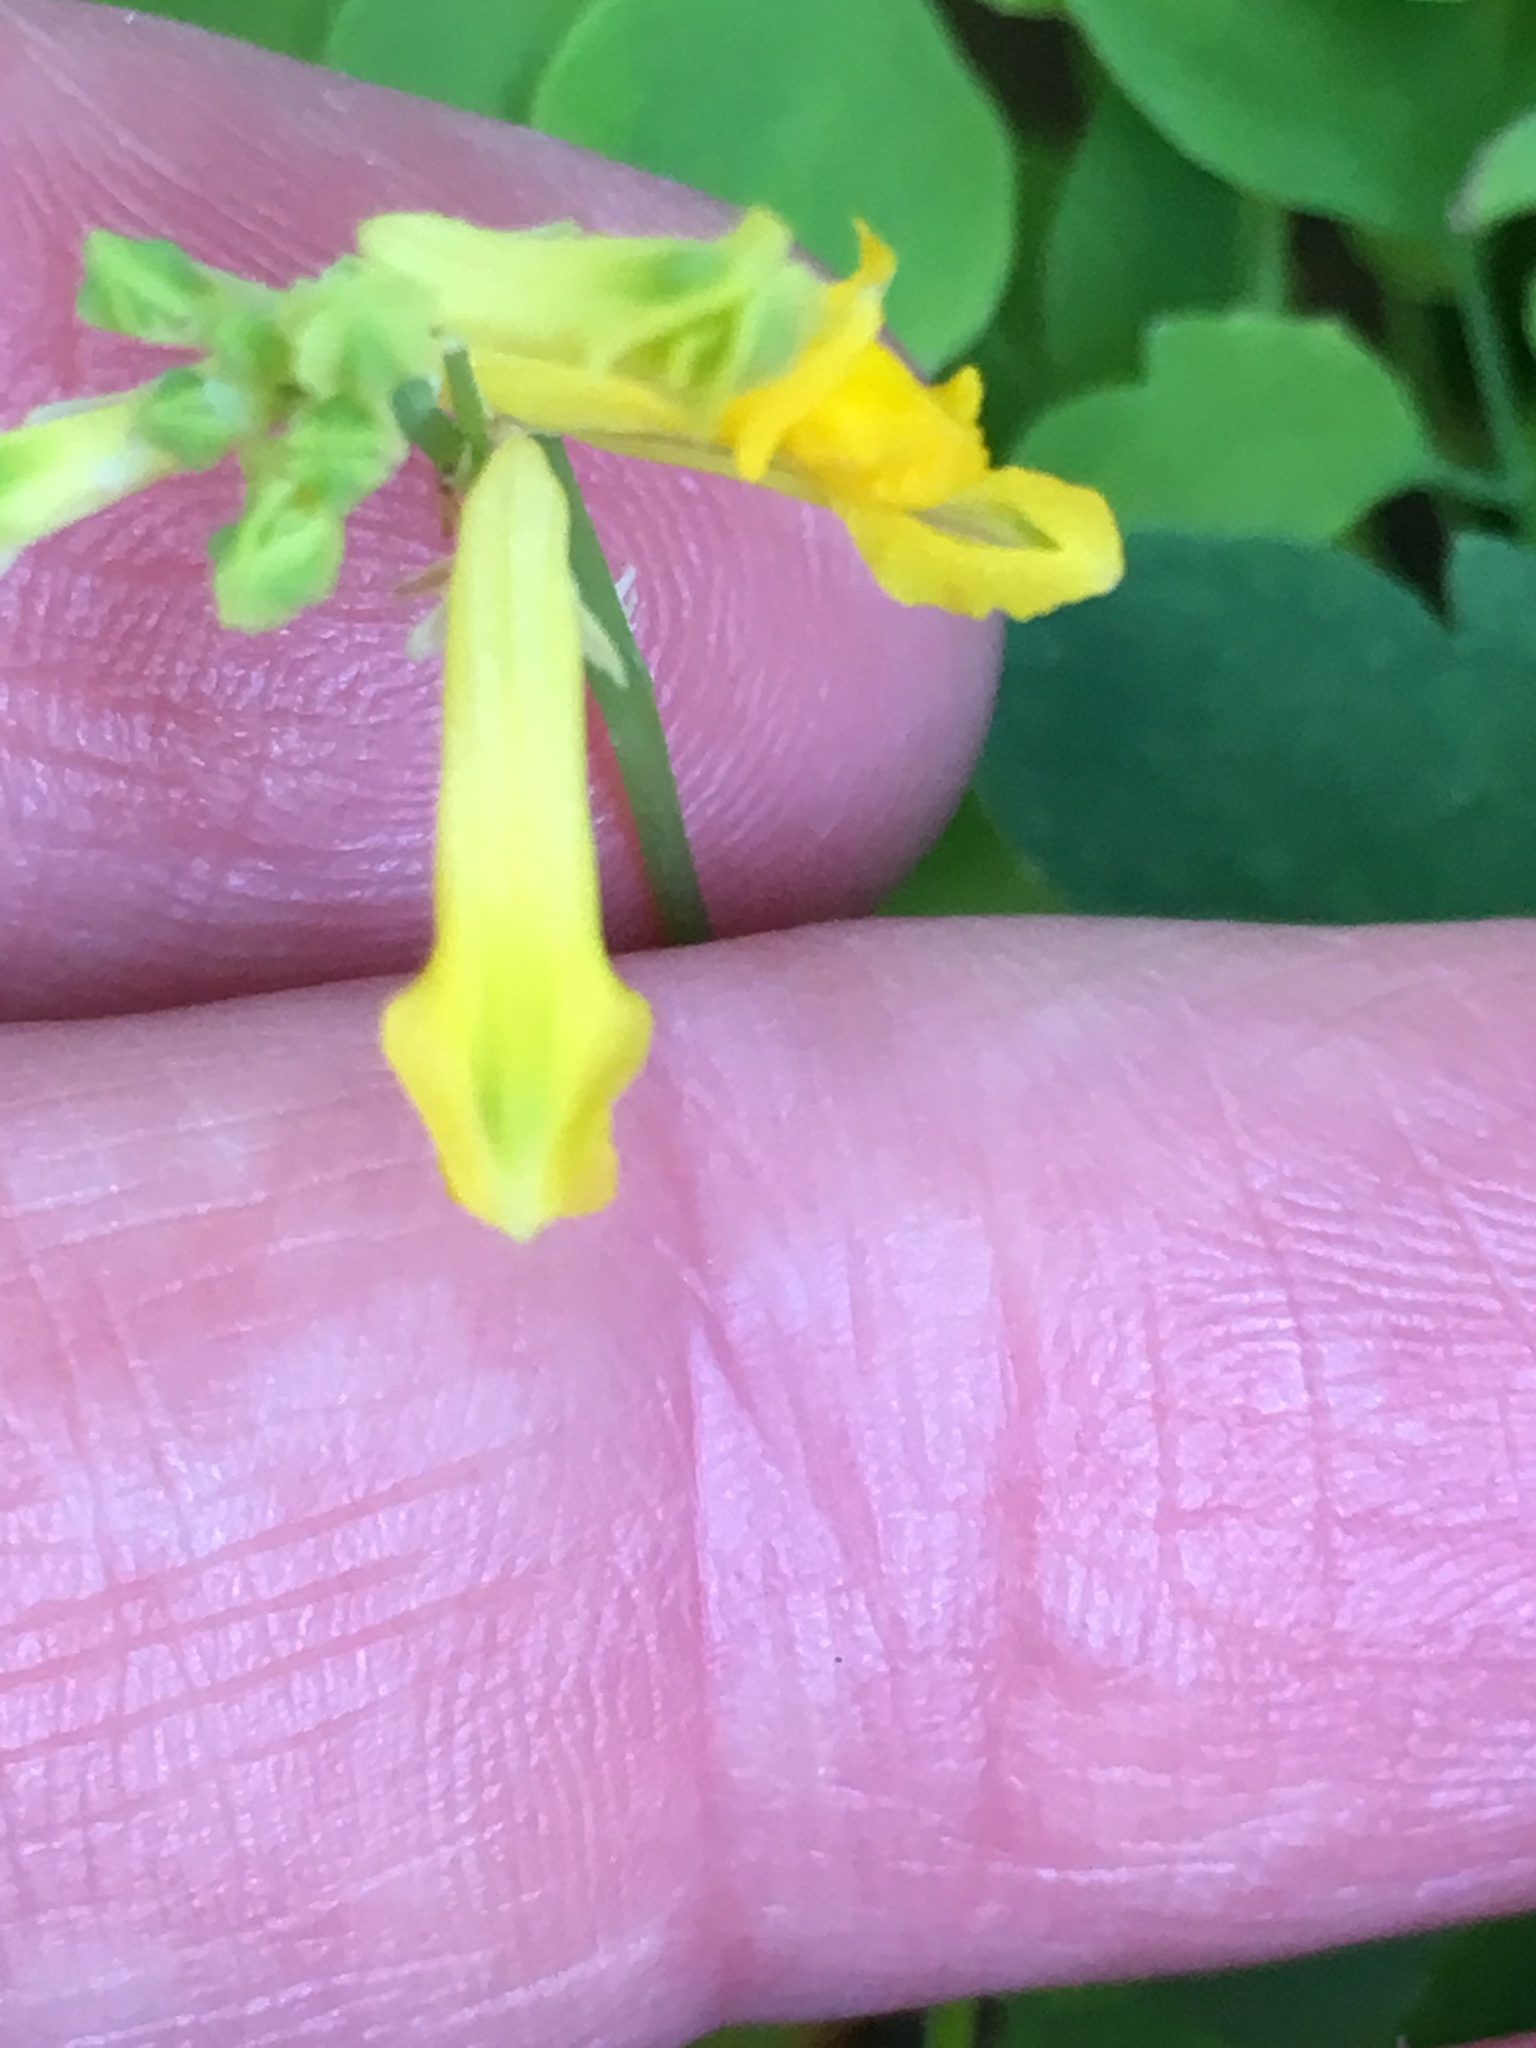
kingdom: Plantae
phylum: Tracheophyta
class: Magnoliopsida
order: Ranunculales
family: Papaveraceae
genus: Pseudofumaria
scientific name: Pseudofumaria lutea
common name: Yellow corydalis
